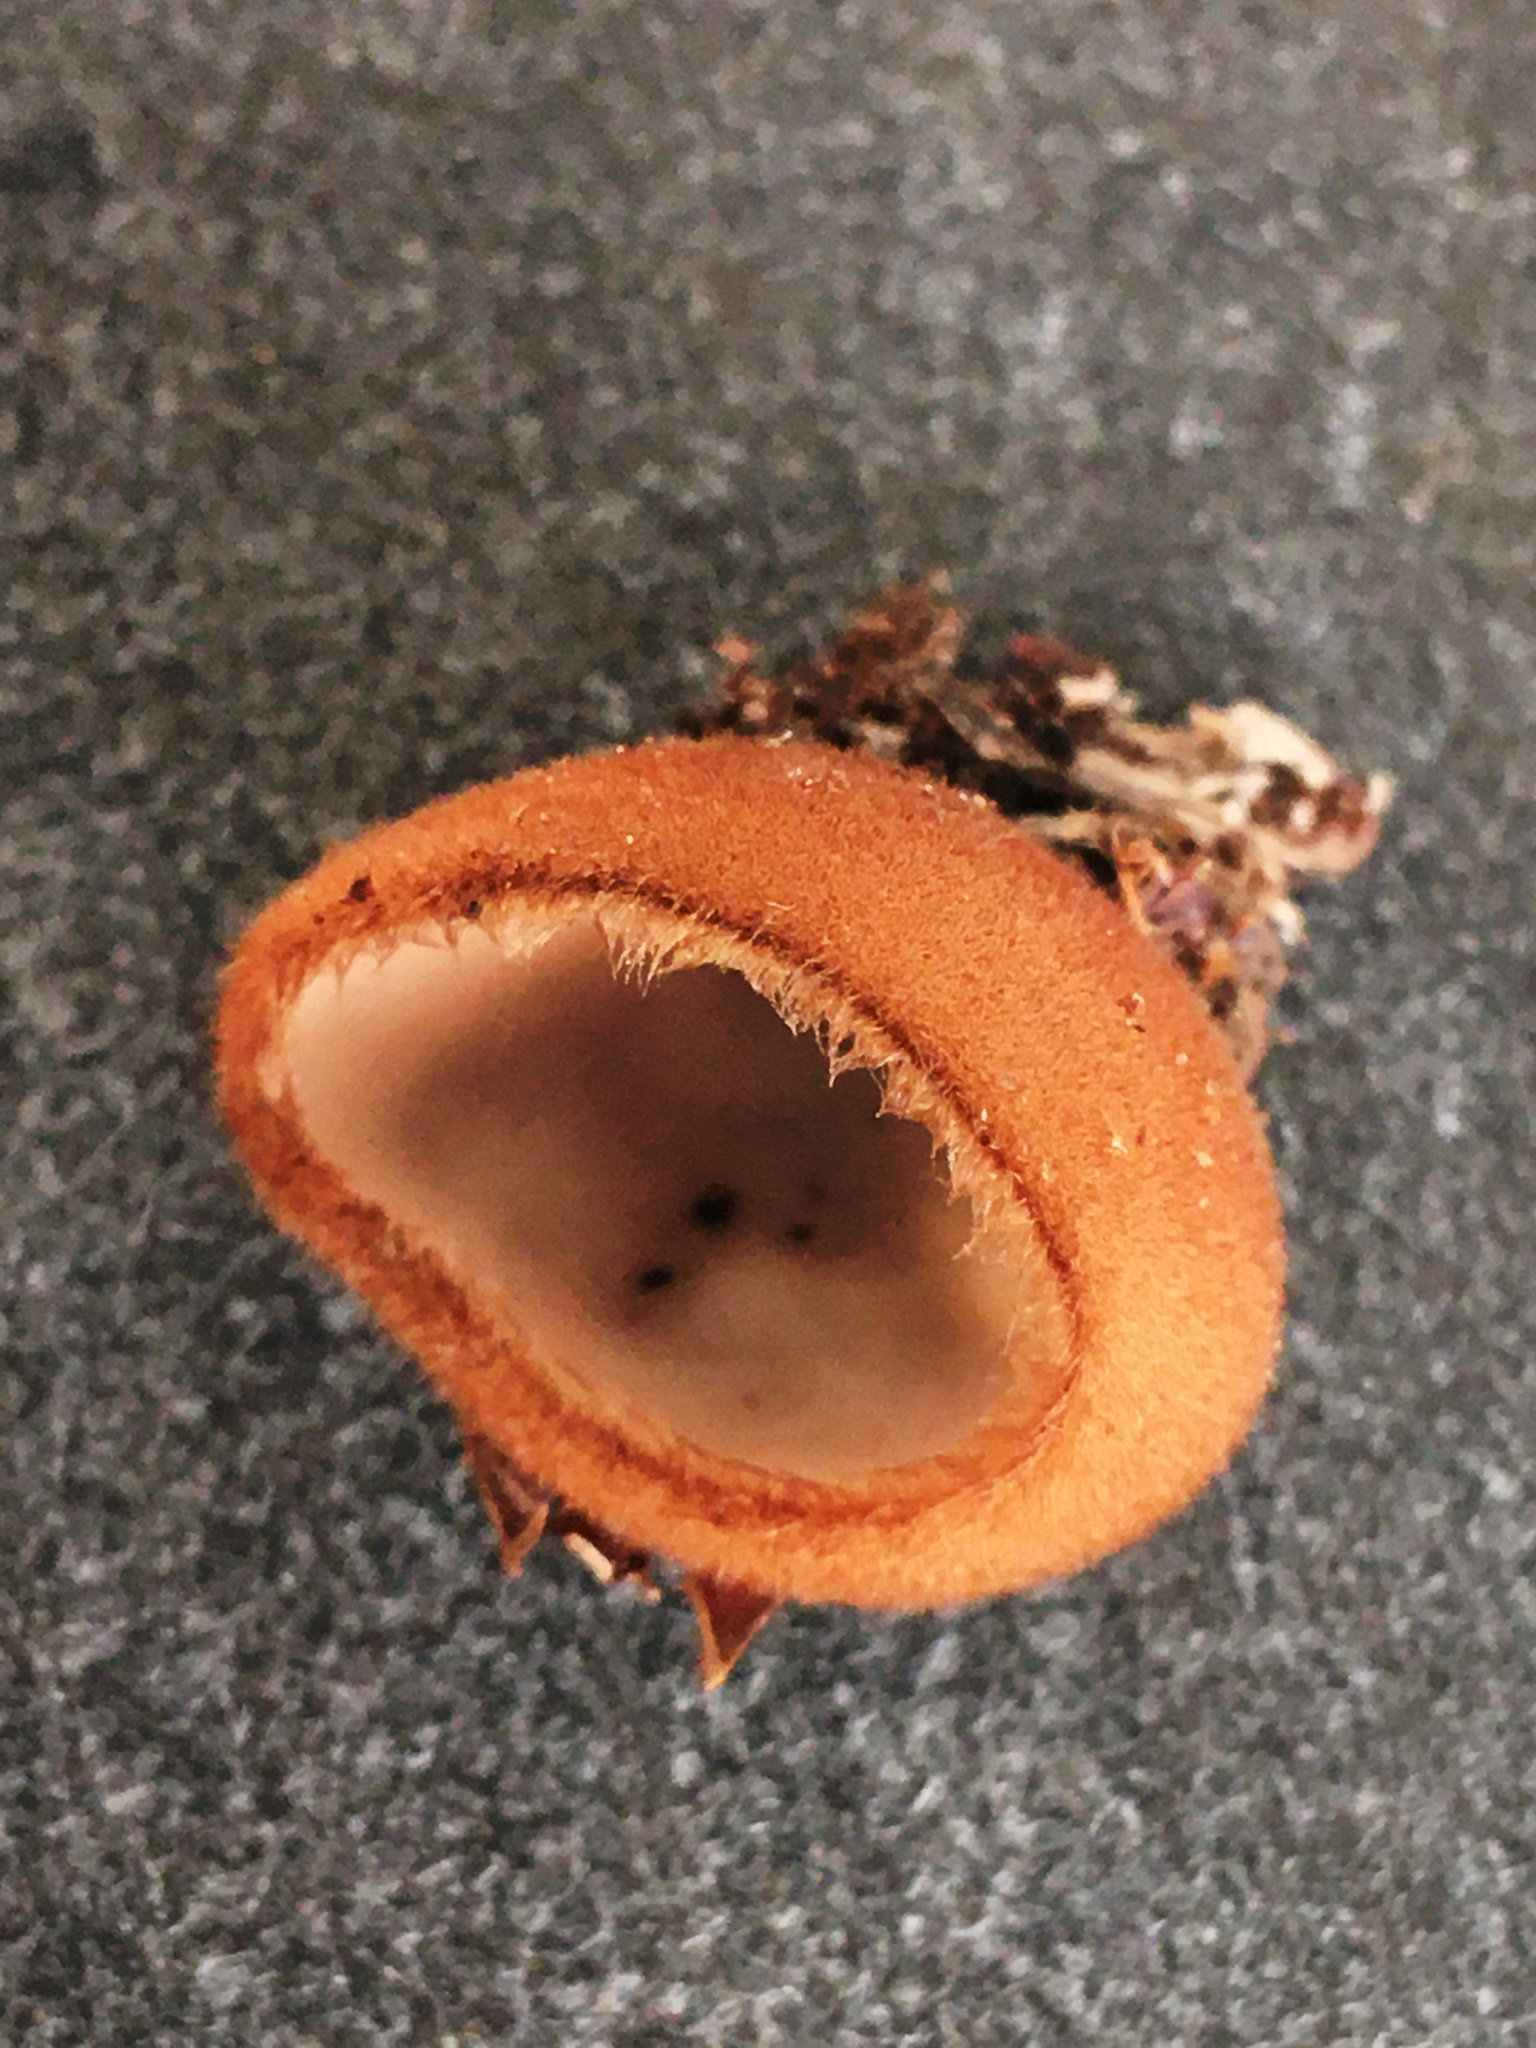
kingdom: Fungi
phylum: Ascomycota
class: Pezizomycetes
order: Pezizales
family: Pyronemataceae
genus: Humaria
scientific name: Humaria hemisphaerica
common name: Glazed cup
